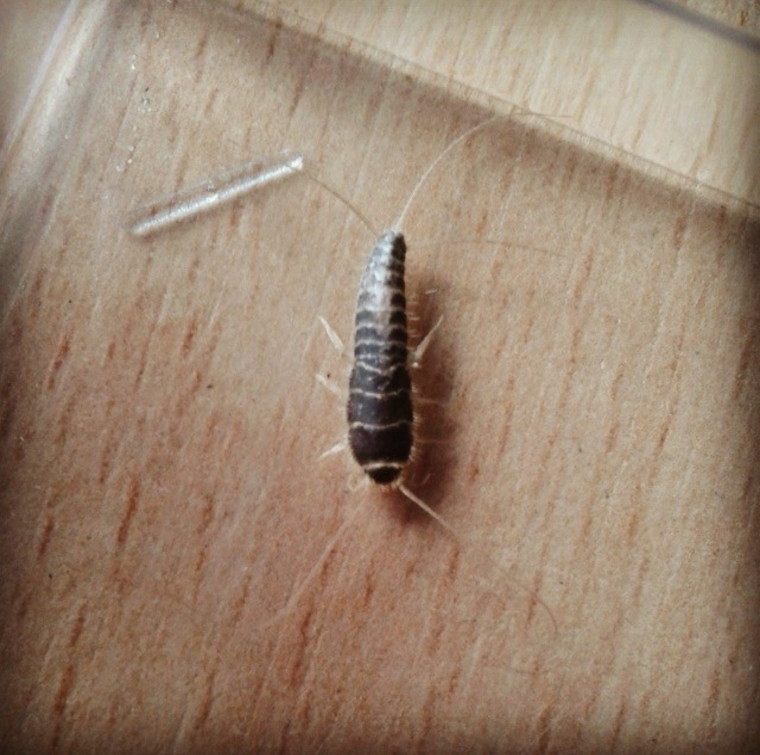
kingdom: Animalia
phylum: Arthropoda
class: Insecta
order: Zygentoma
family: Lepismatidae
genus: Ctenolepisma
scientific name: Ctenolepisma longicaudatum
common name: Silverfish
